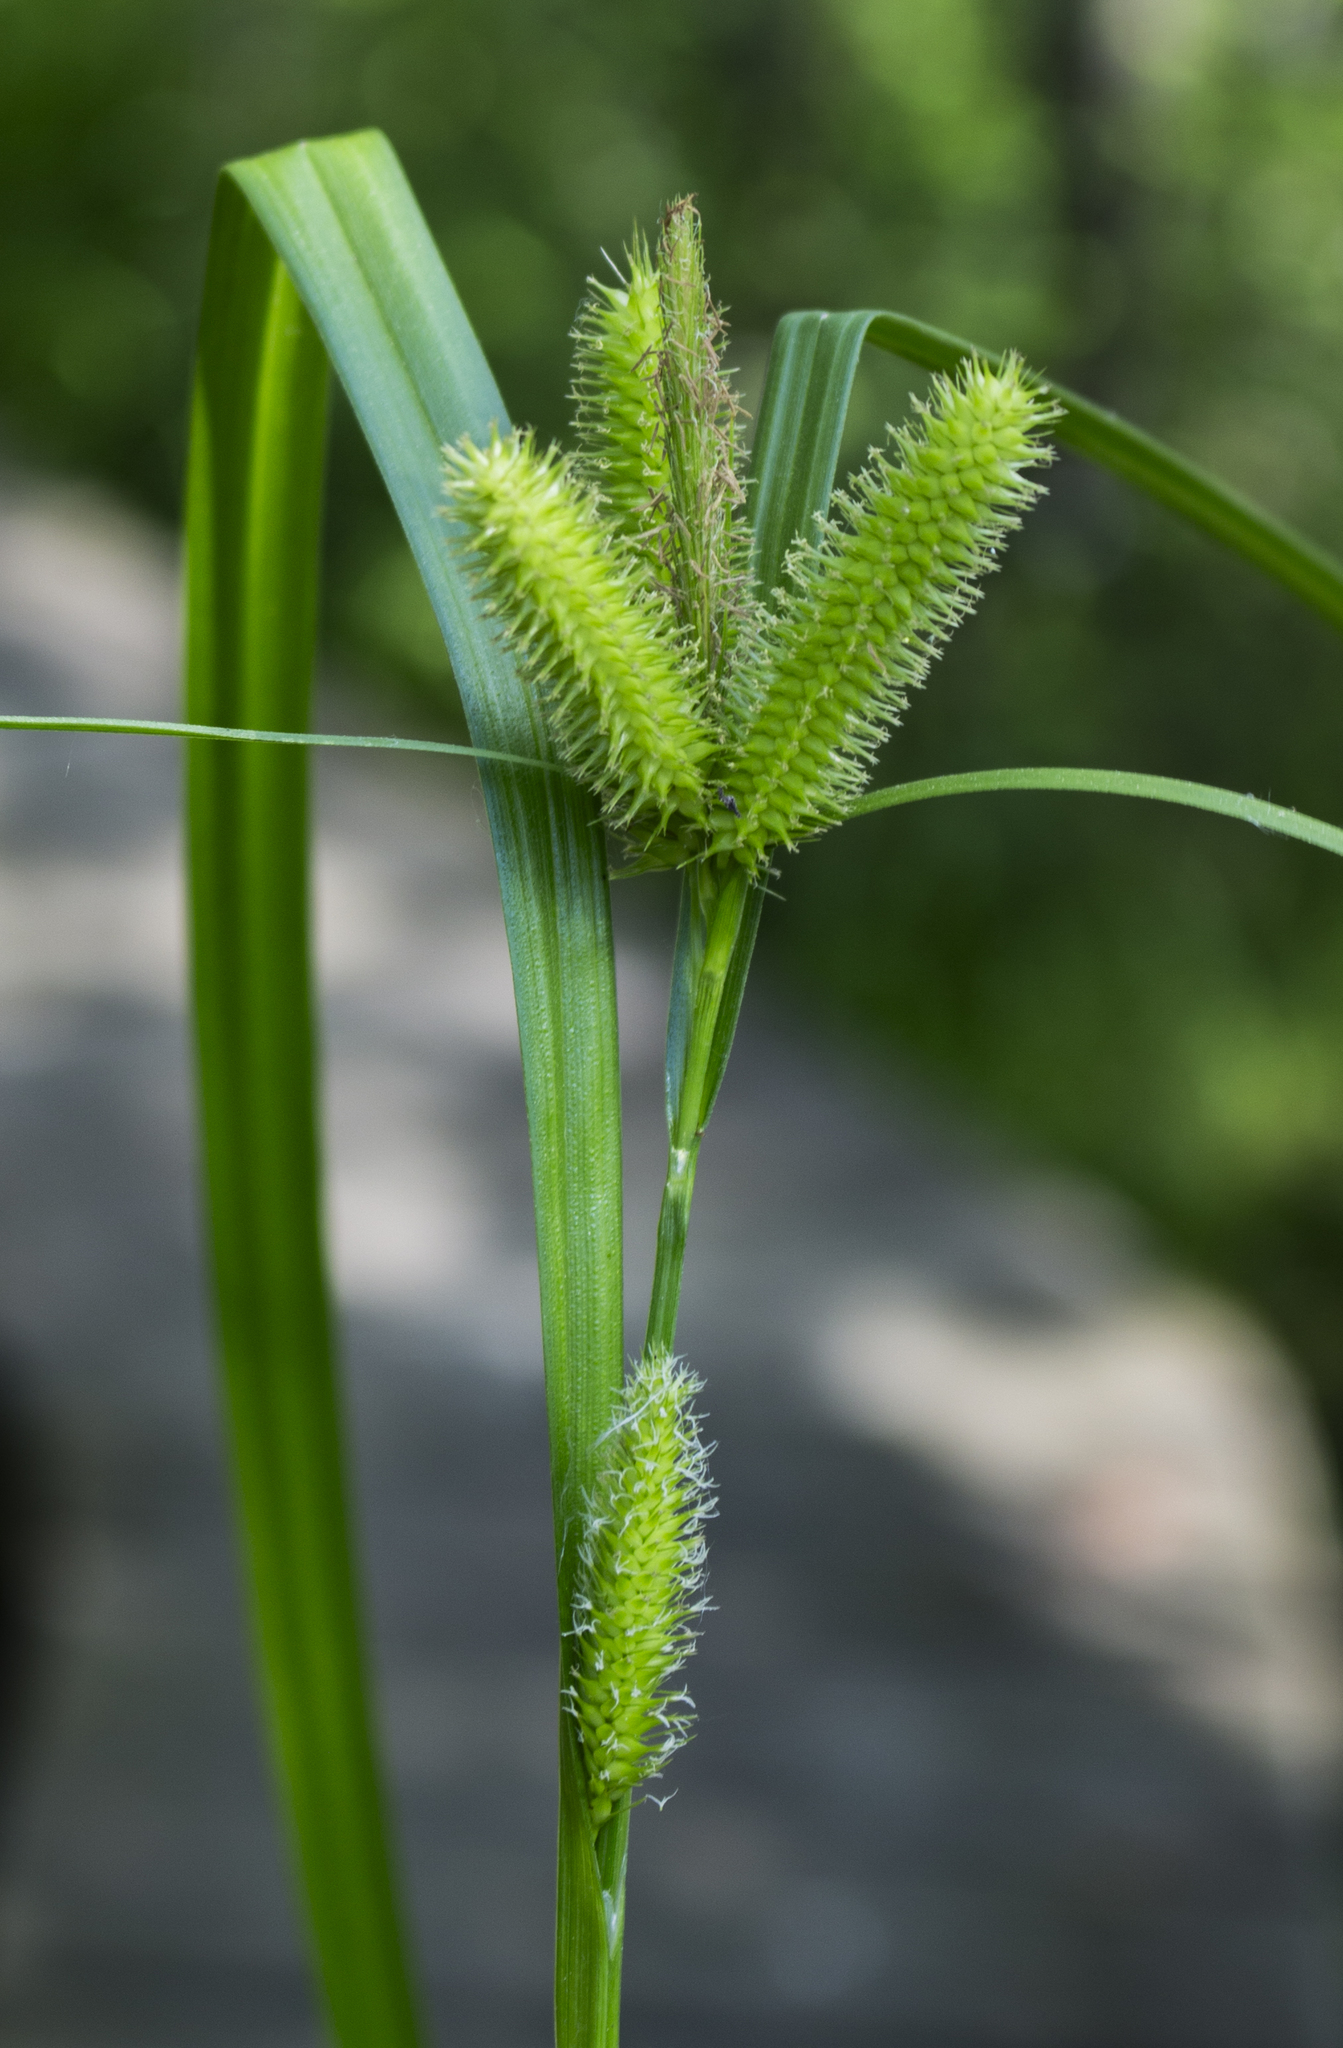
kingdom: Plantae
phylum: Tracheophyta
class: Liliopsida
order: Poales
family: Cyperaceae
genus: Carex
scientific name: Carex comosa
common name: Bristly sedge
